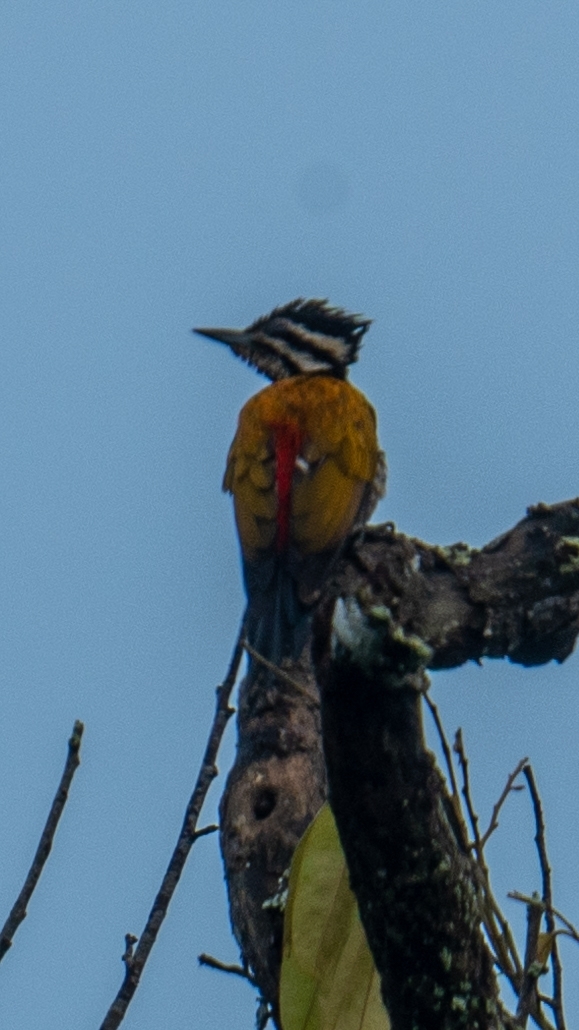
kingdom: Animalia
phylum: Chordata
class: Aves
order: Piciformes
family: Picidae
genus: Dinopium
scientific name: Dinopium javanense
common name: Common flameback
